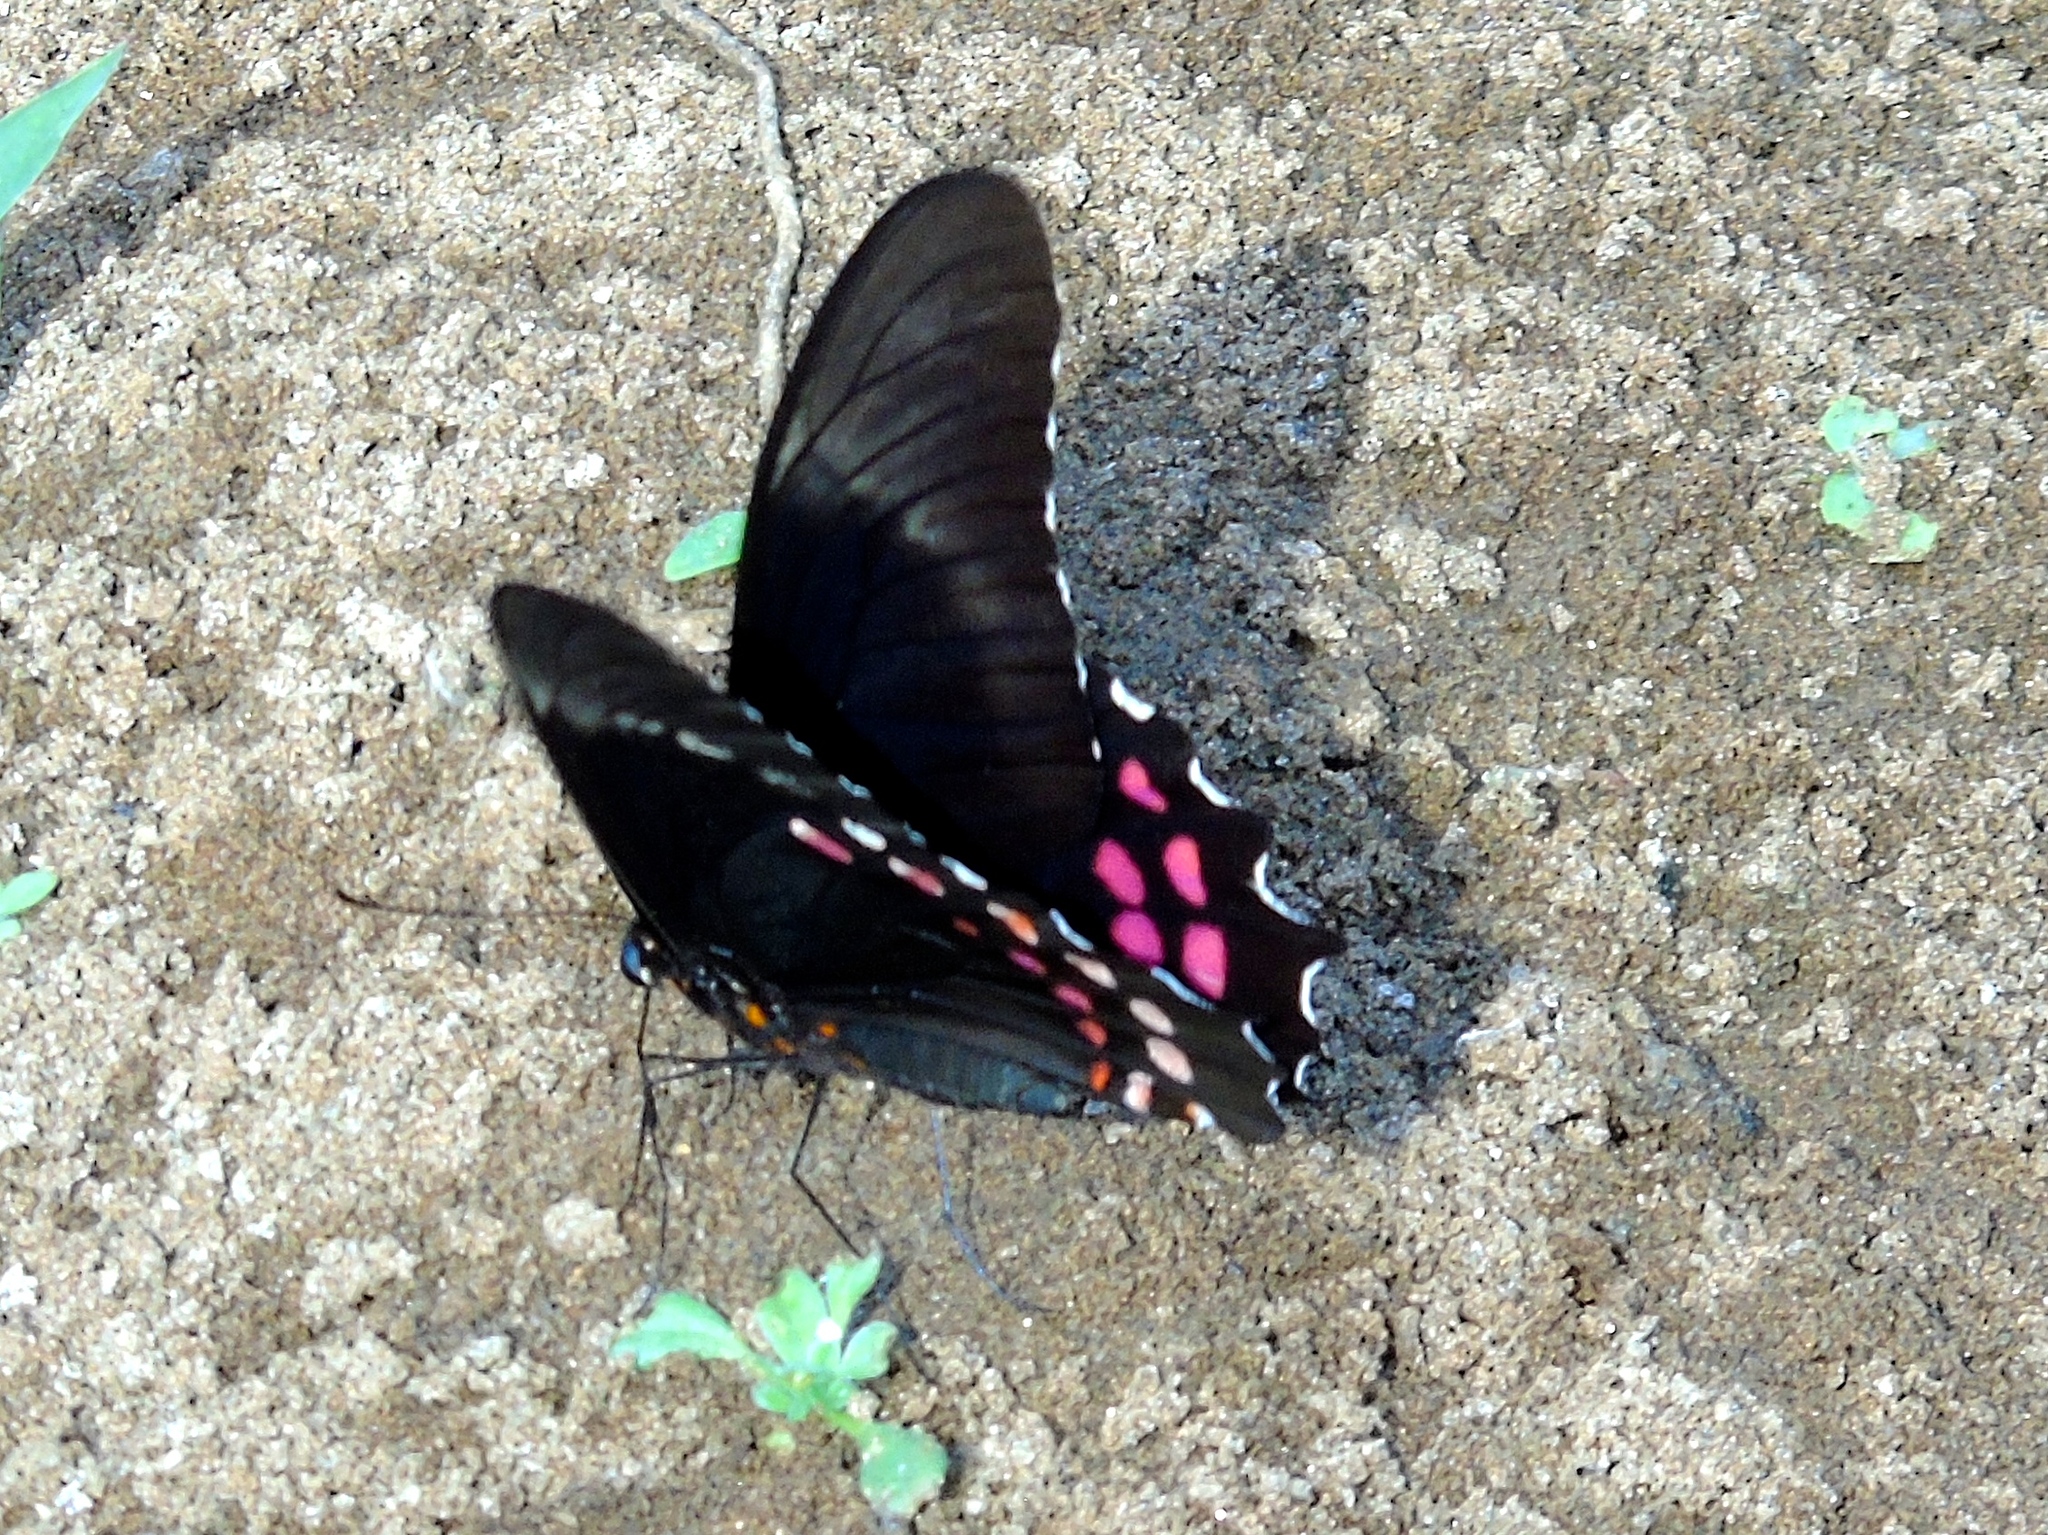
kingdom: Animalia
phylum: Arthropoda
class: Insecta
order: Lepidoptera
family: Papilionidae
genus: Heraclides
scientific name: Heraclides rogeri
